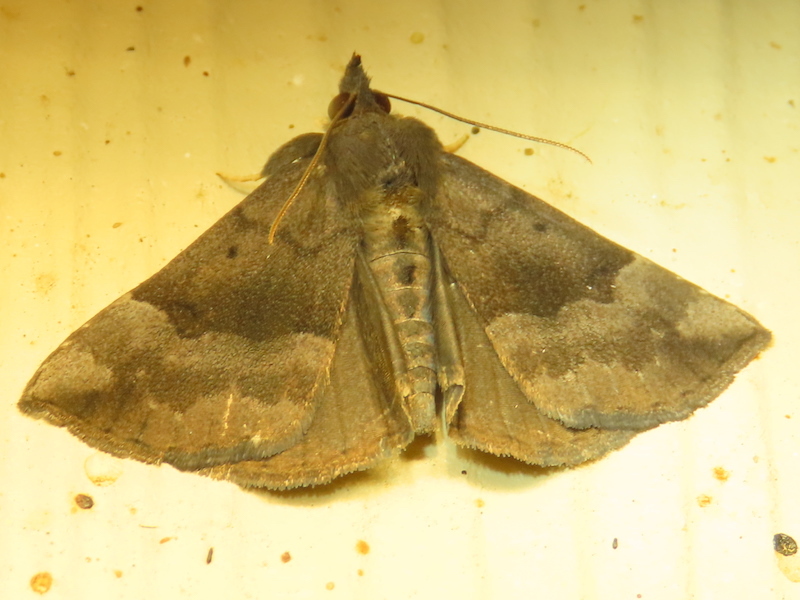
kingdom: Animalia
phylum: Arthropoda
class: Insecta
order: Lepidoptera
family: Erebidae
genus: Hypena
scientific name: Hypena madefactalis
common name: Gray-edged snout
